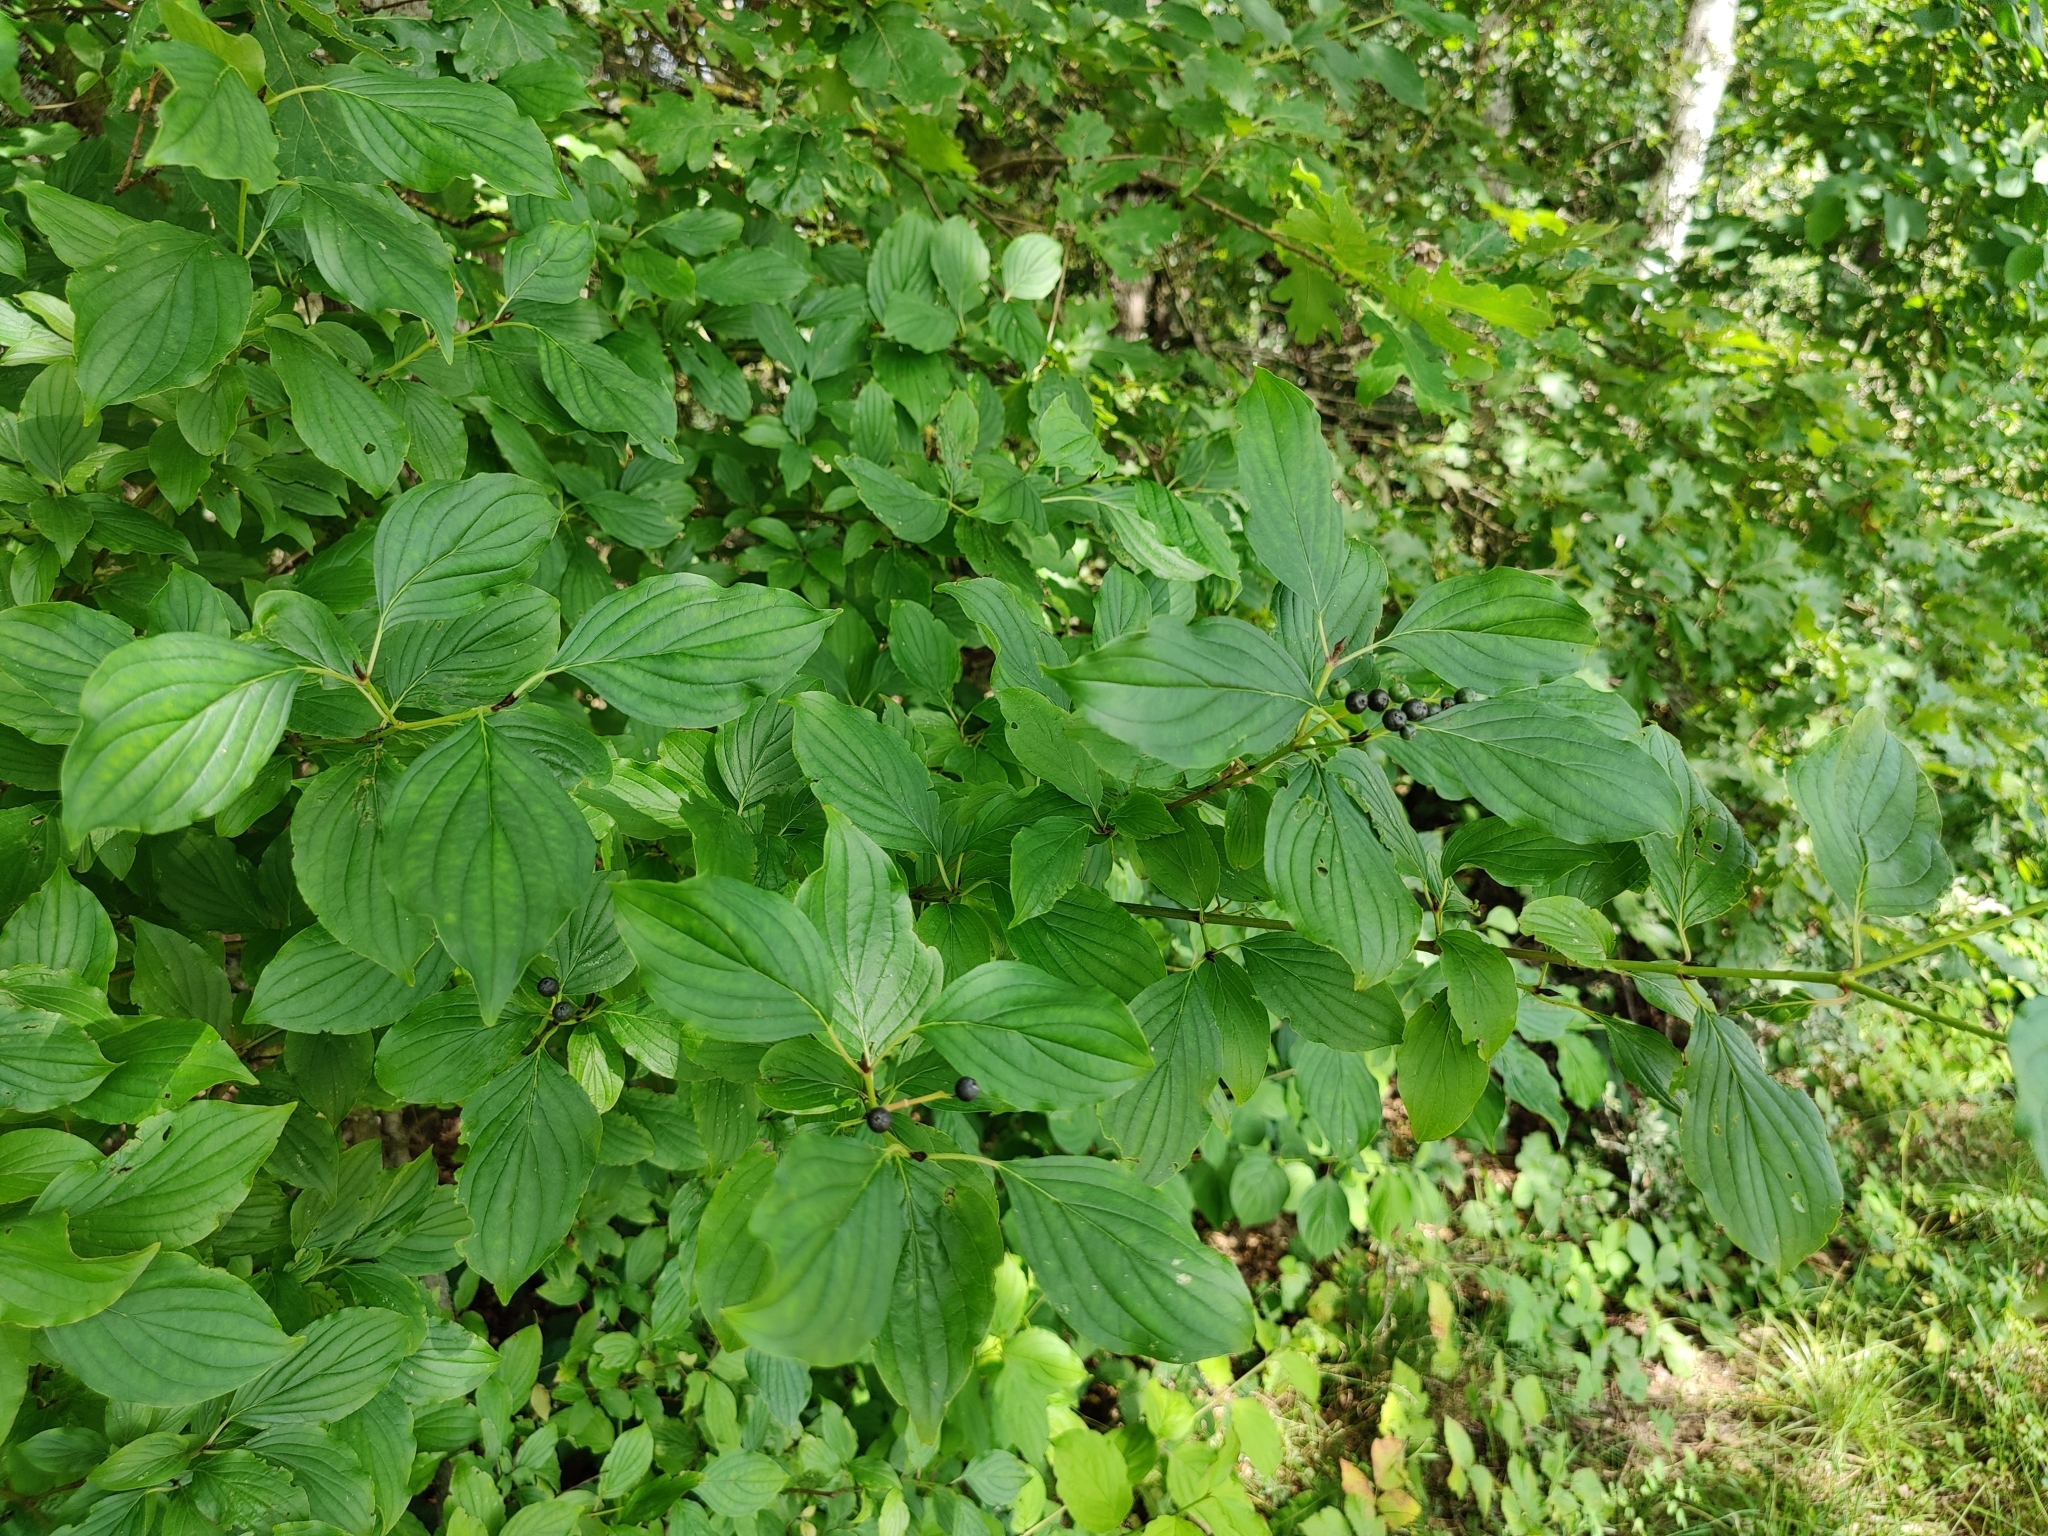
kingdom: Plantae
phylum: Tracheophyta
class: Magnoliopsida
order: Cornales
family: Cornaceae
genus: Cornus
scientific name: Cornus sanguinea
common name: Dogwood
